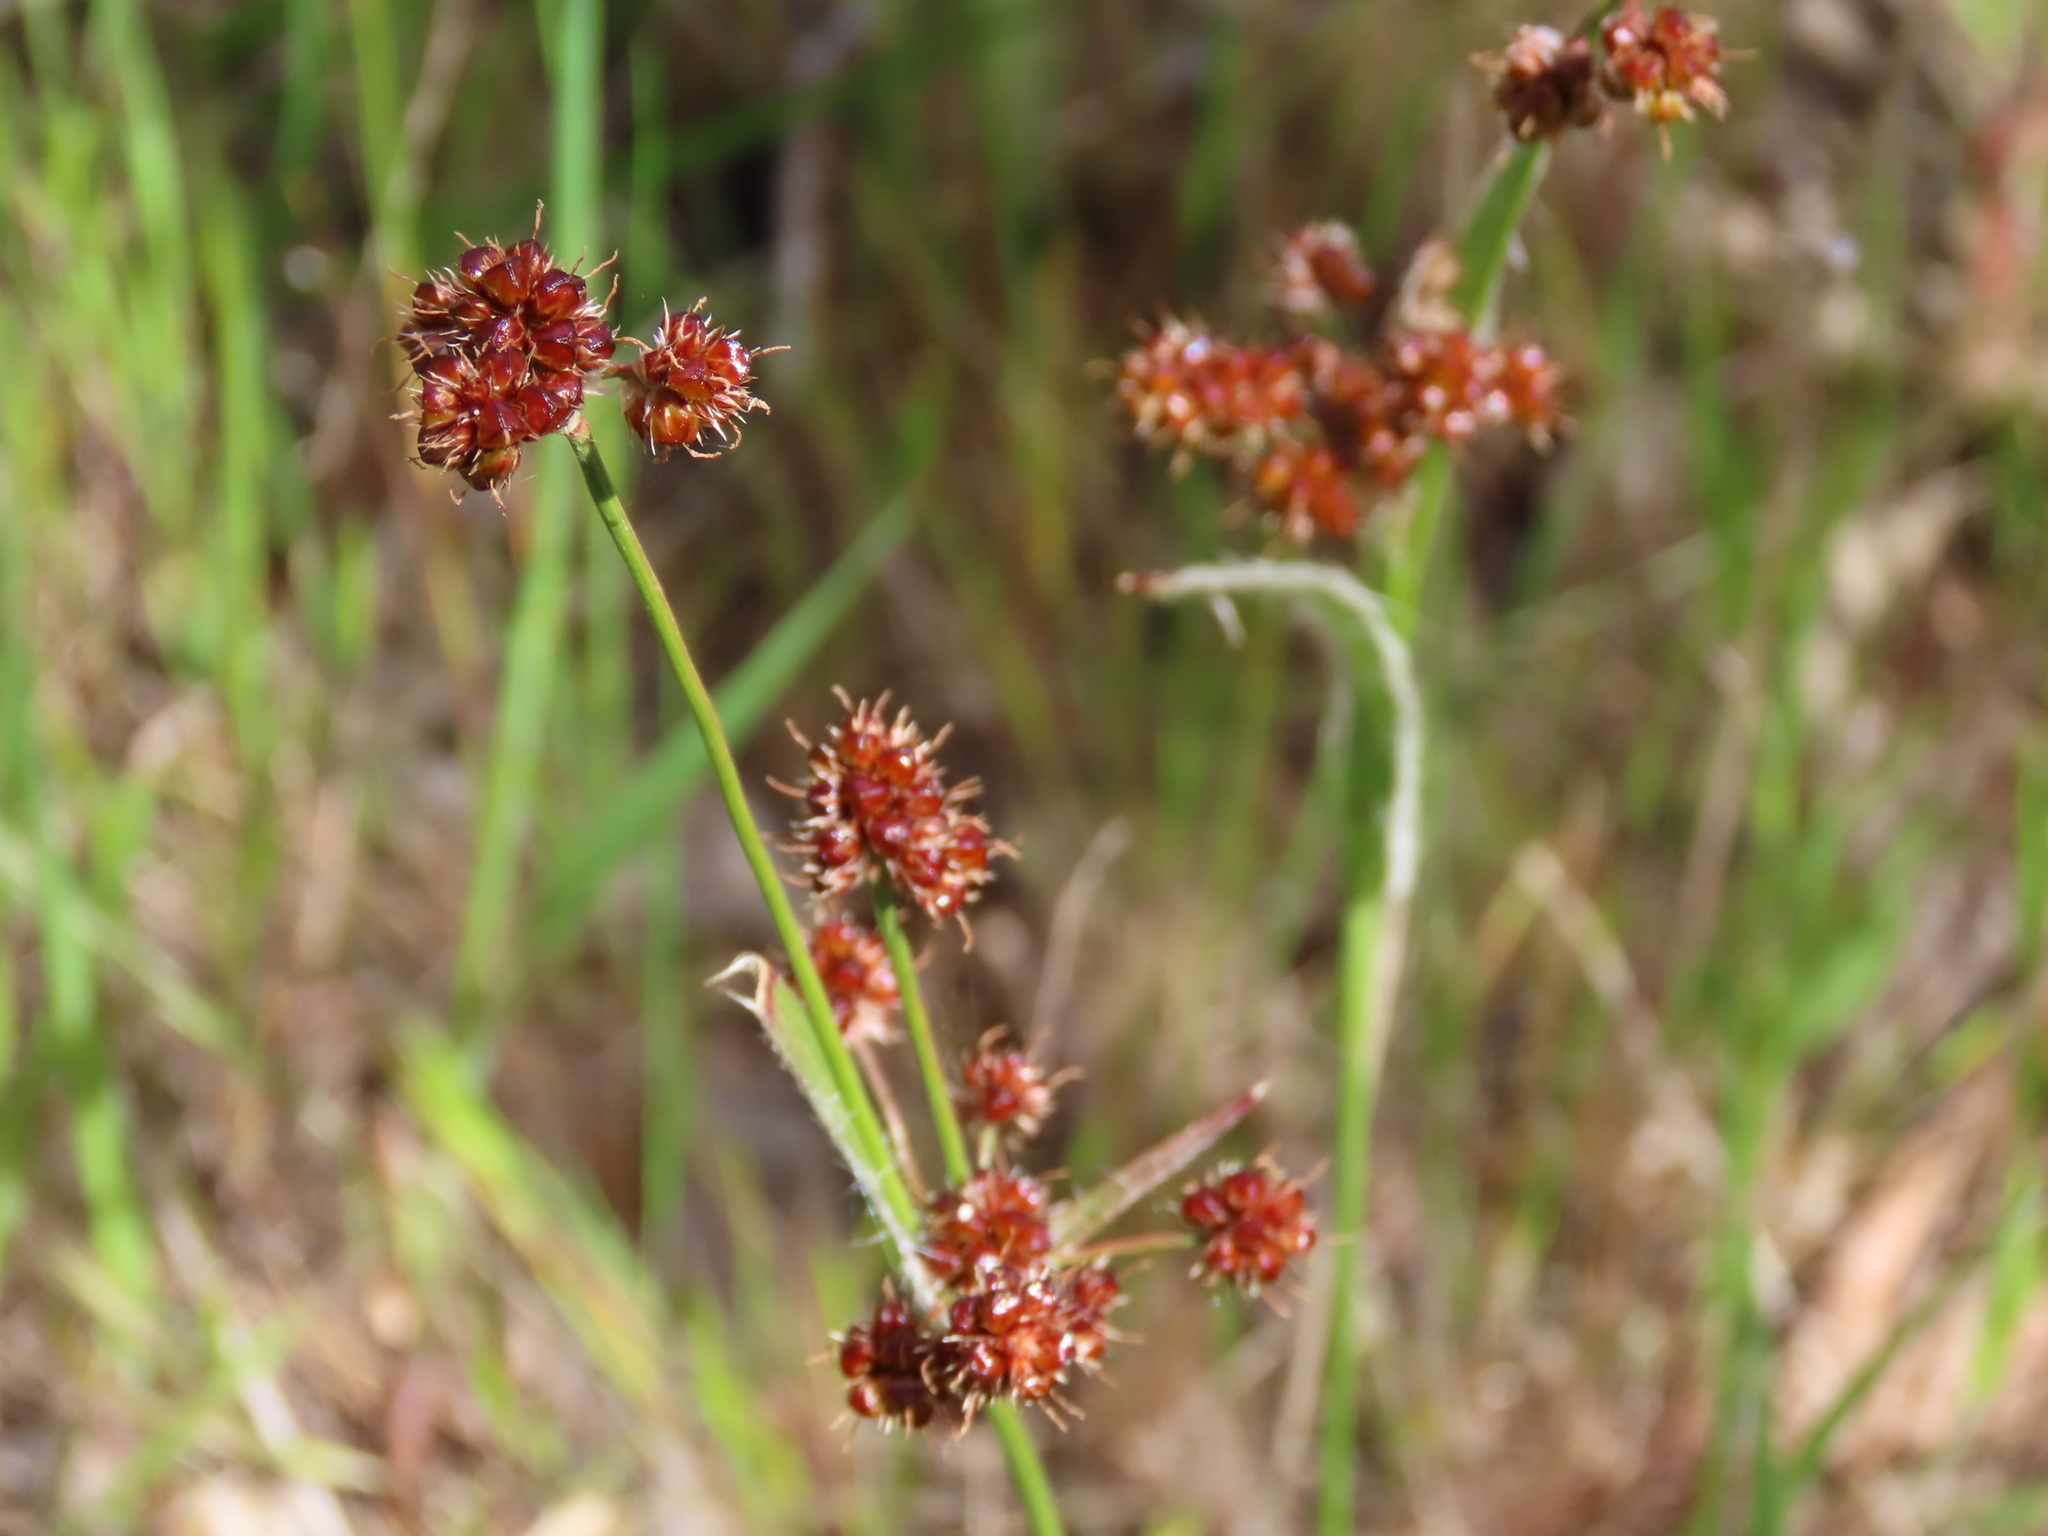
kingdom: Plantae
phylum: Tracheophyta
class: Liliopsida
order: Poales
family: Juncaceae
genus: Luzula
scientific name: Luzula meridionalis
